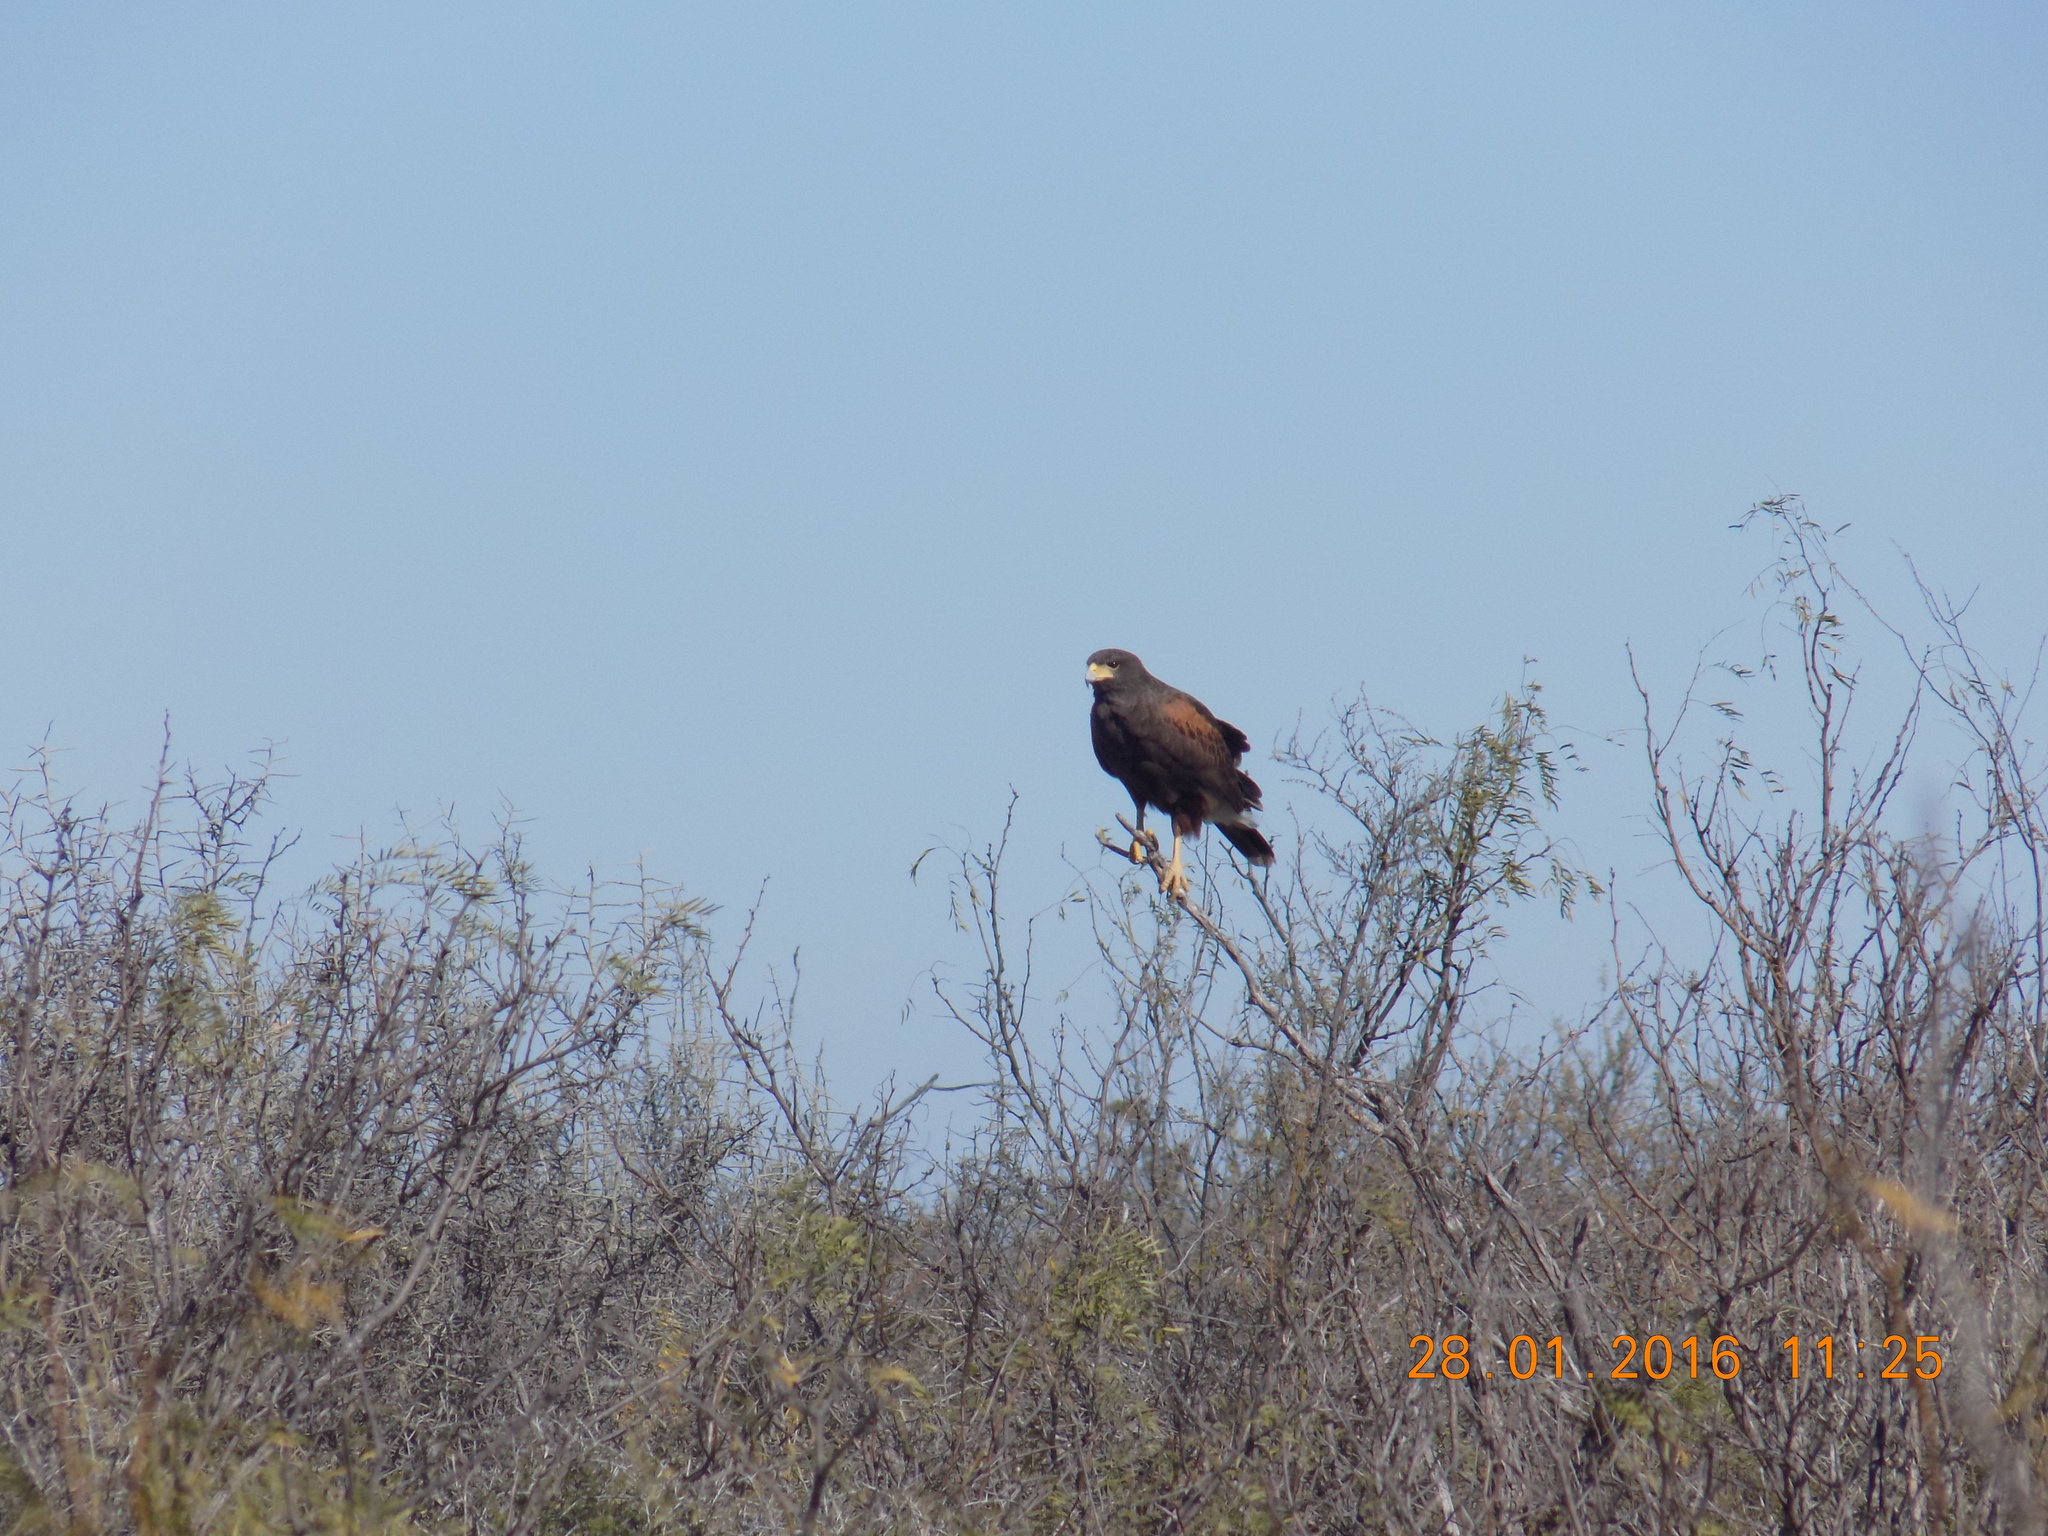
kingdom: Animalia
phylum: Chordata
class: Aves
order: Accipitriformes
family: Accipitridae
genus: Parabuteo
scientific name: Parabuteo unicinctus
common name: Harris's hawk
